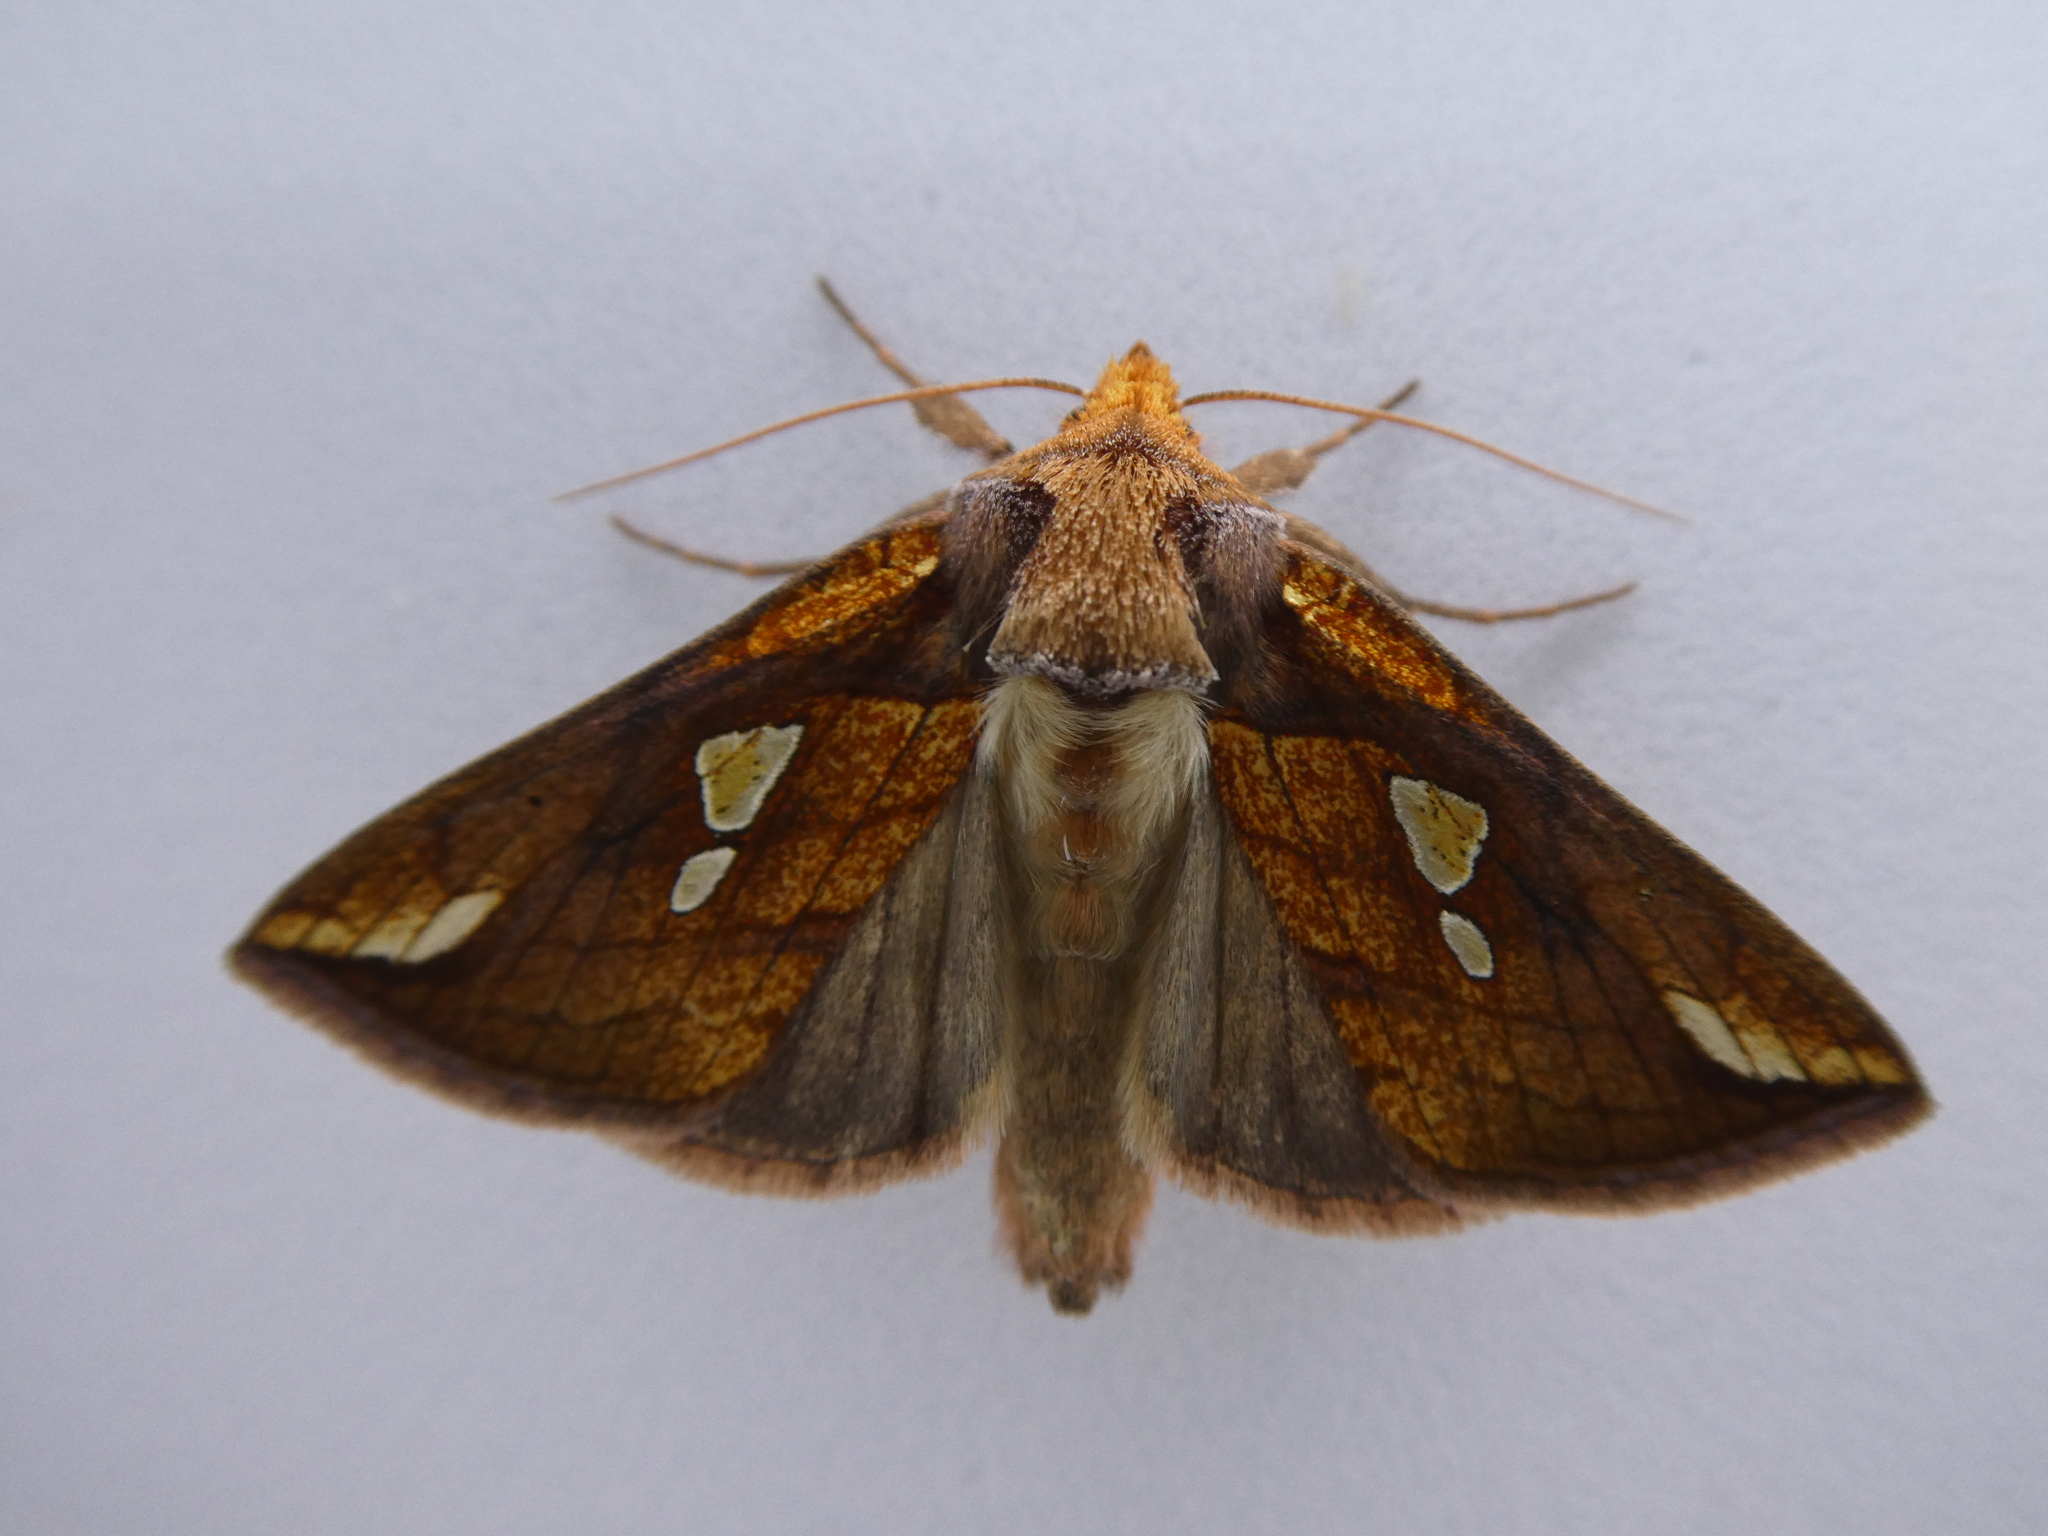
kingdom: Animalia
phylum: Arthropoda
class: Insecta
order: Lepidoptera
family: Noctuidae
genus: Plusia
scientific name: Plusia putnami
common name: Lempke's gold spot
